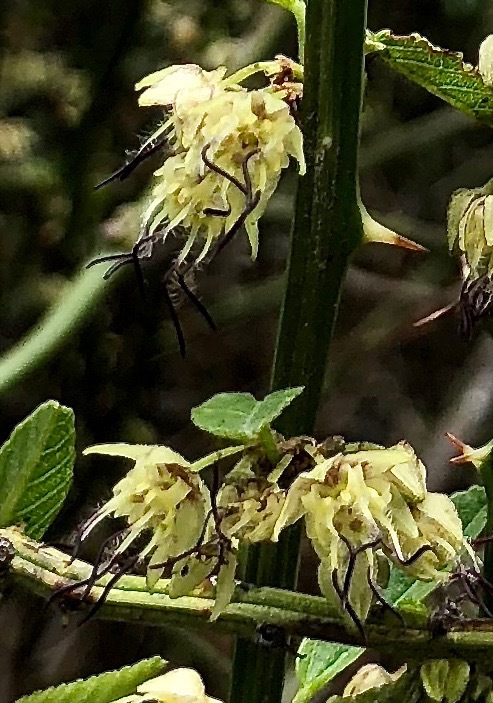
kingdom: Plantae
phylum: Tracheophyta
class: Magnoliopsida
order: Malvales
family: Malvaceae
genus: Byttneria
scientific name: Byttneria ovata
